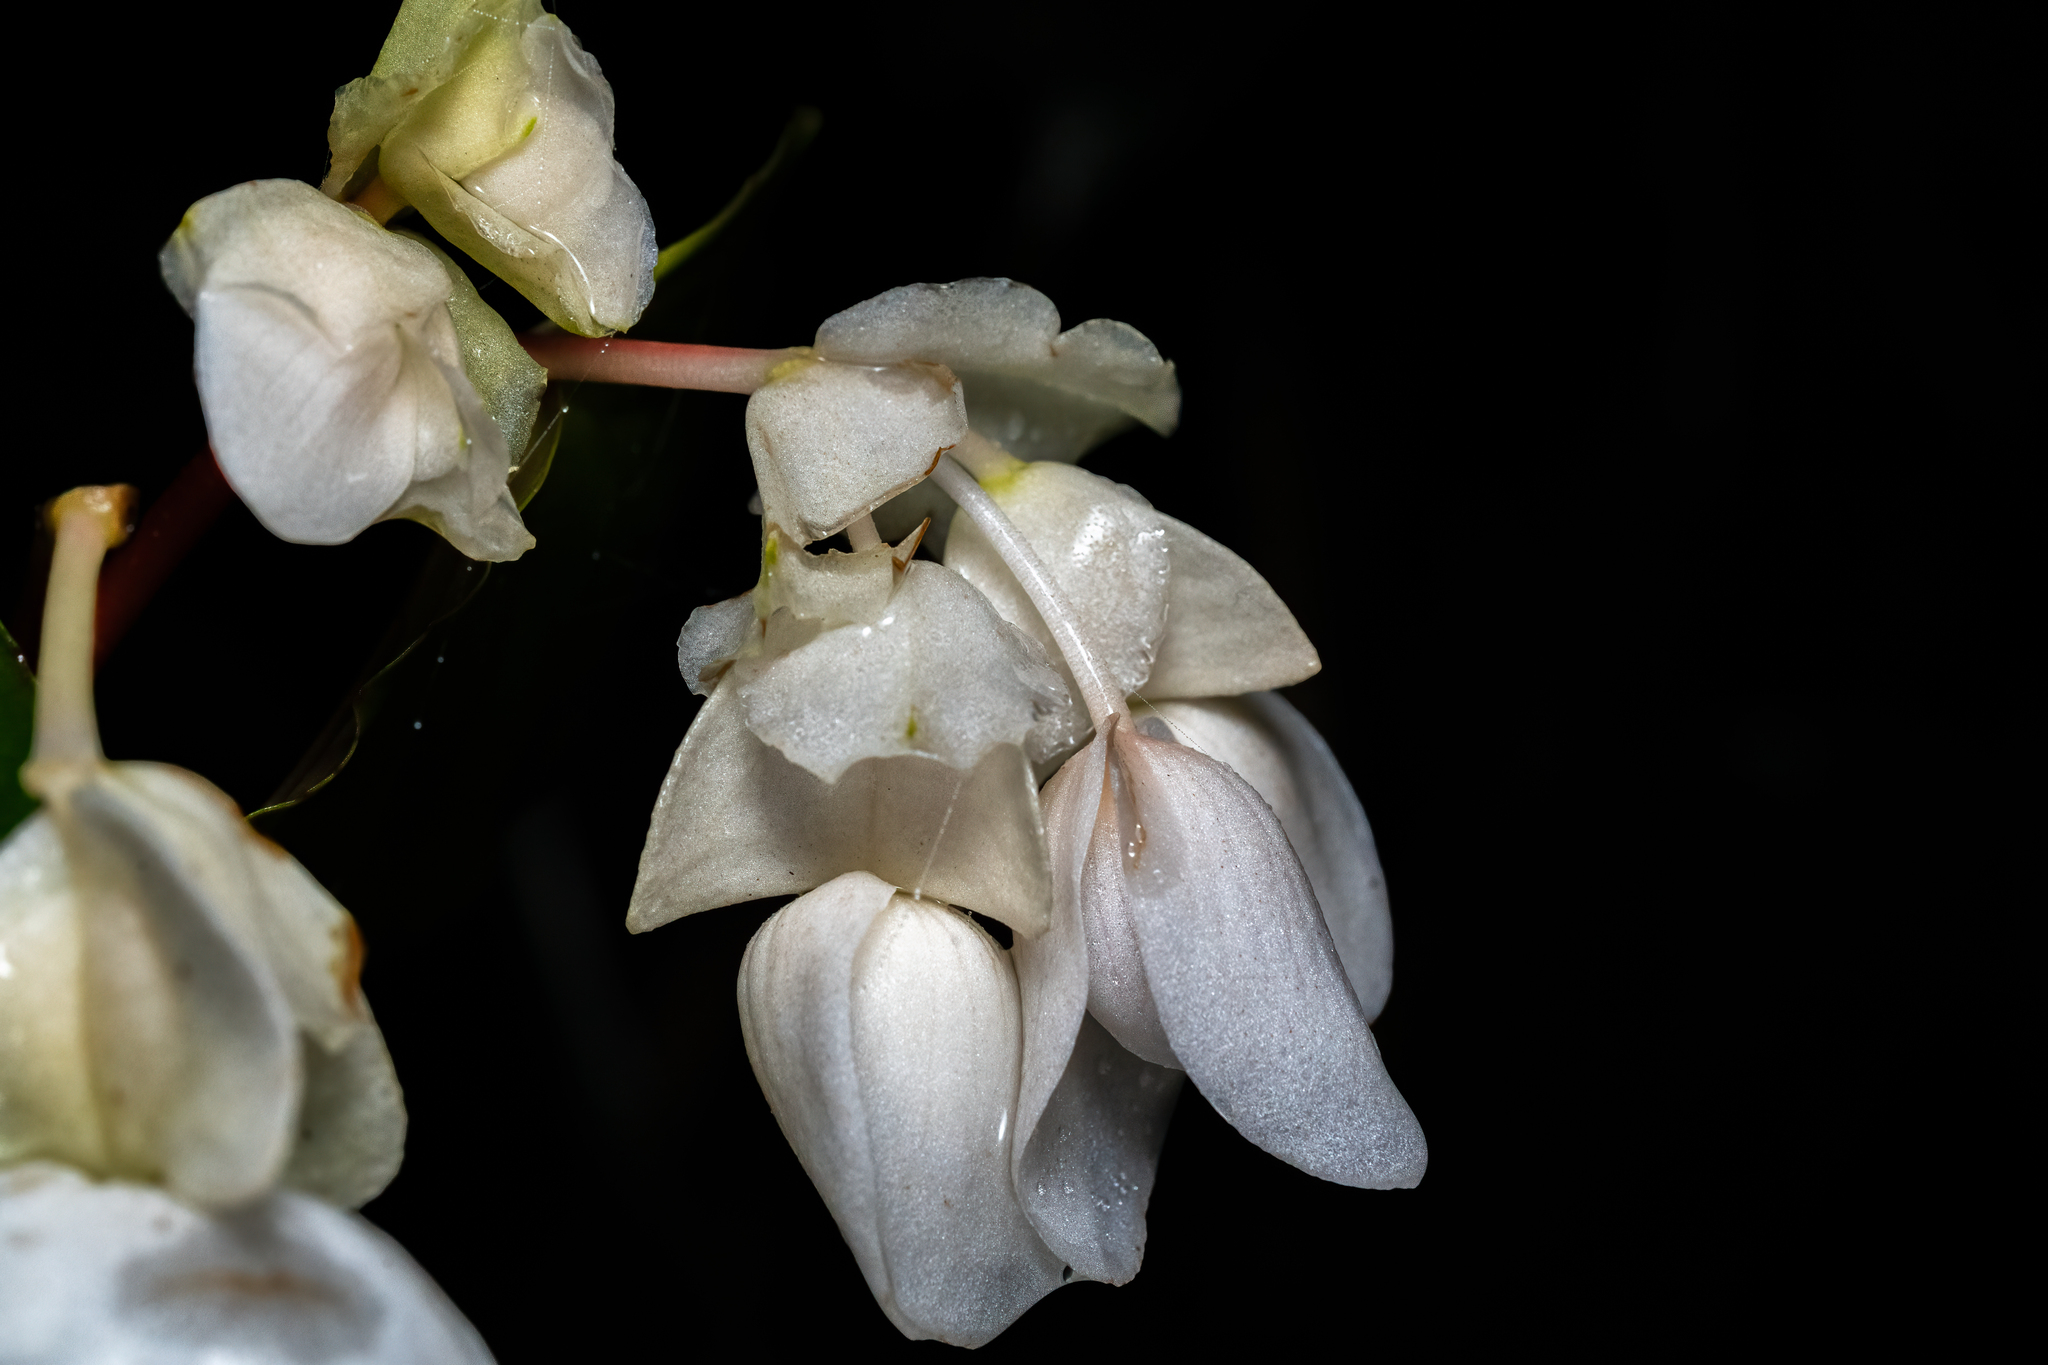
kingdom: Plantae
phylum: Tracheophyta
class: Magnoliopsida
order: Cucurbitales
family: Begoniaceae
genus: Begonia
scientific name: Begonia burbidgei
